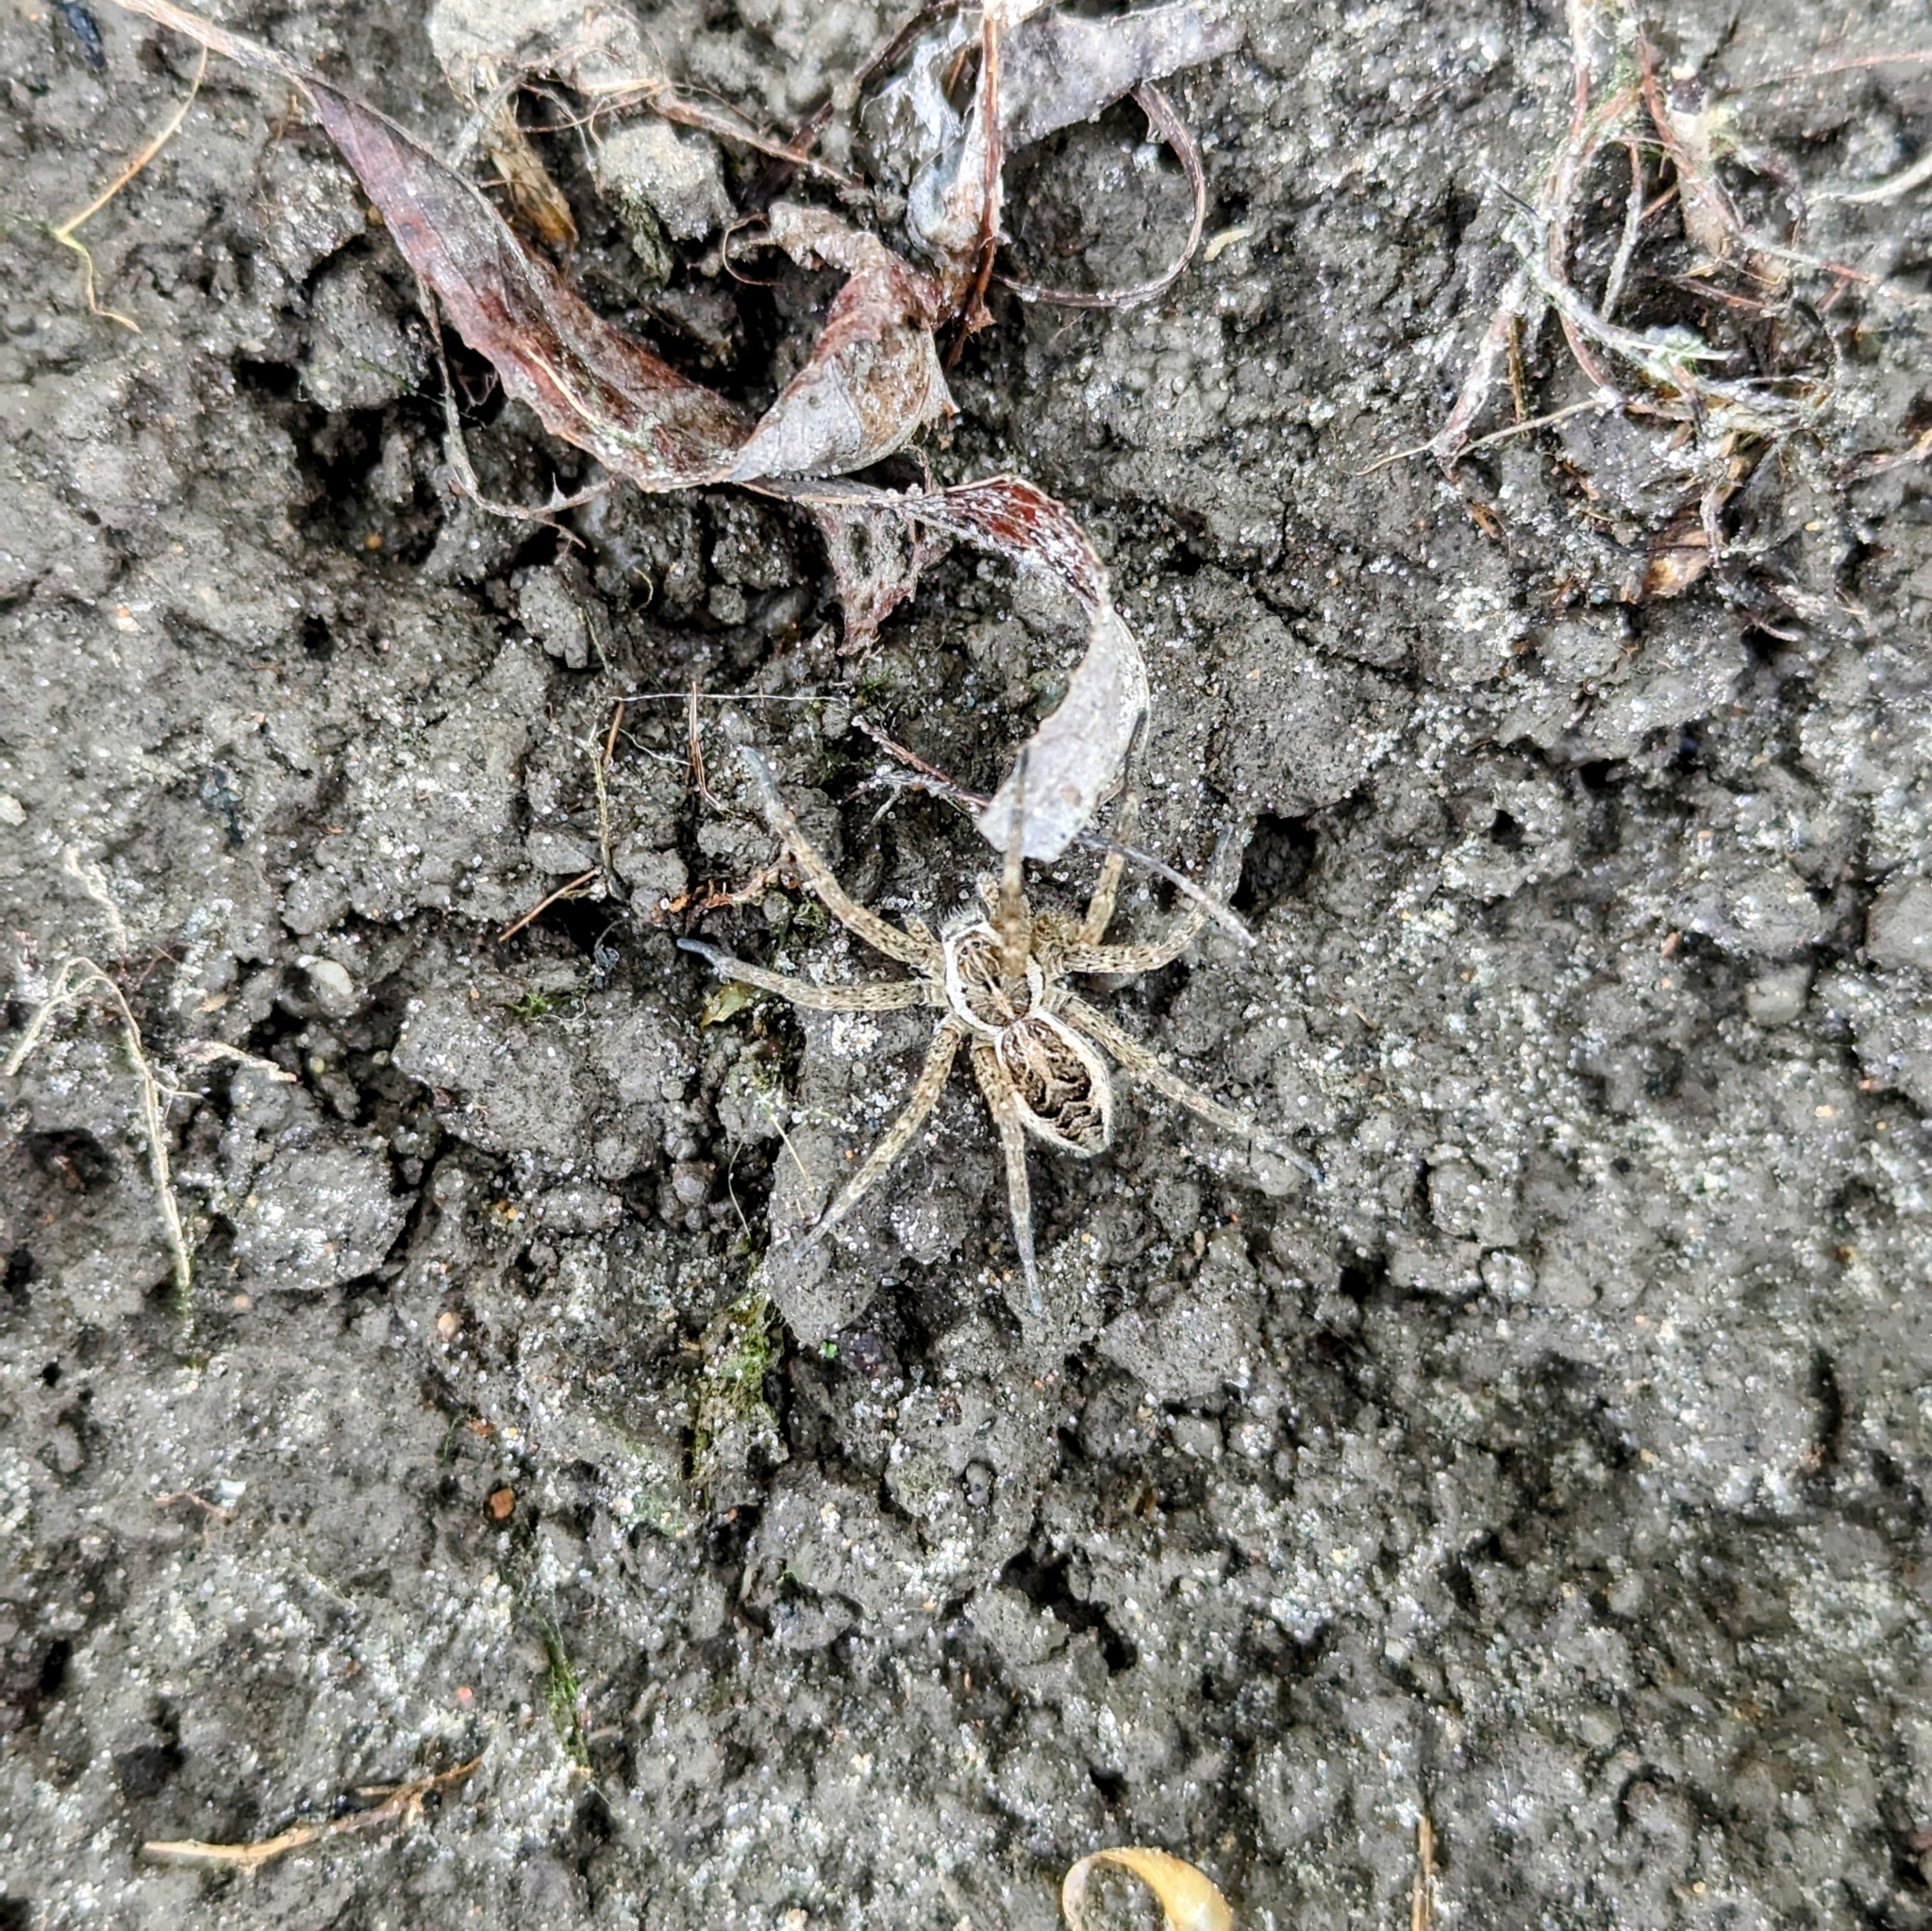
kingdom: Animalia
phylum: Arthropoda
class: Arachnida
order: Araneae
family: Pisauridae
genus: Dolomedes
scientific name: Dolomedes scriptus
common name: Striped fishing spider
